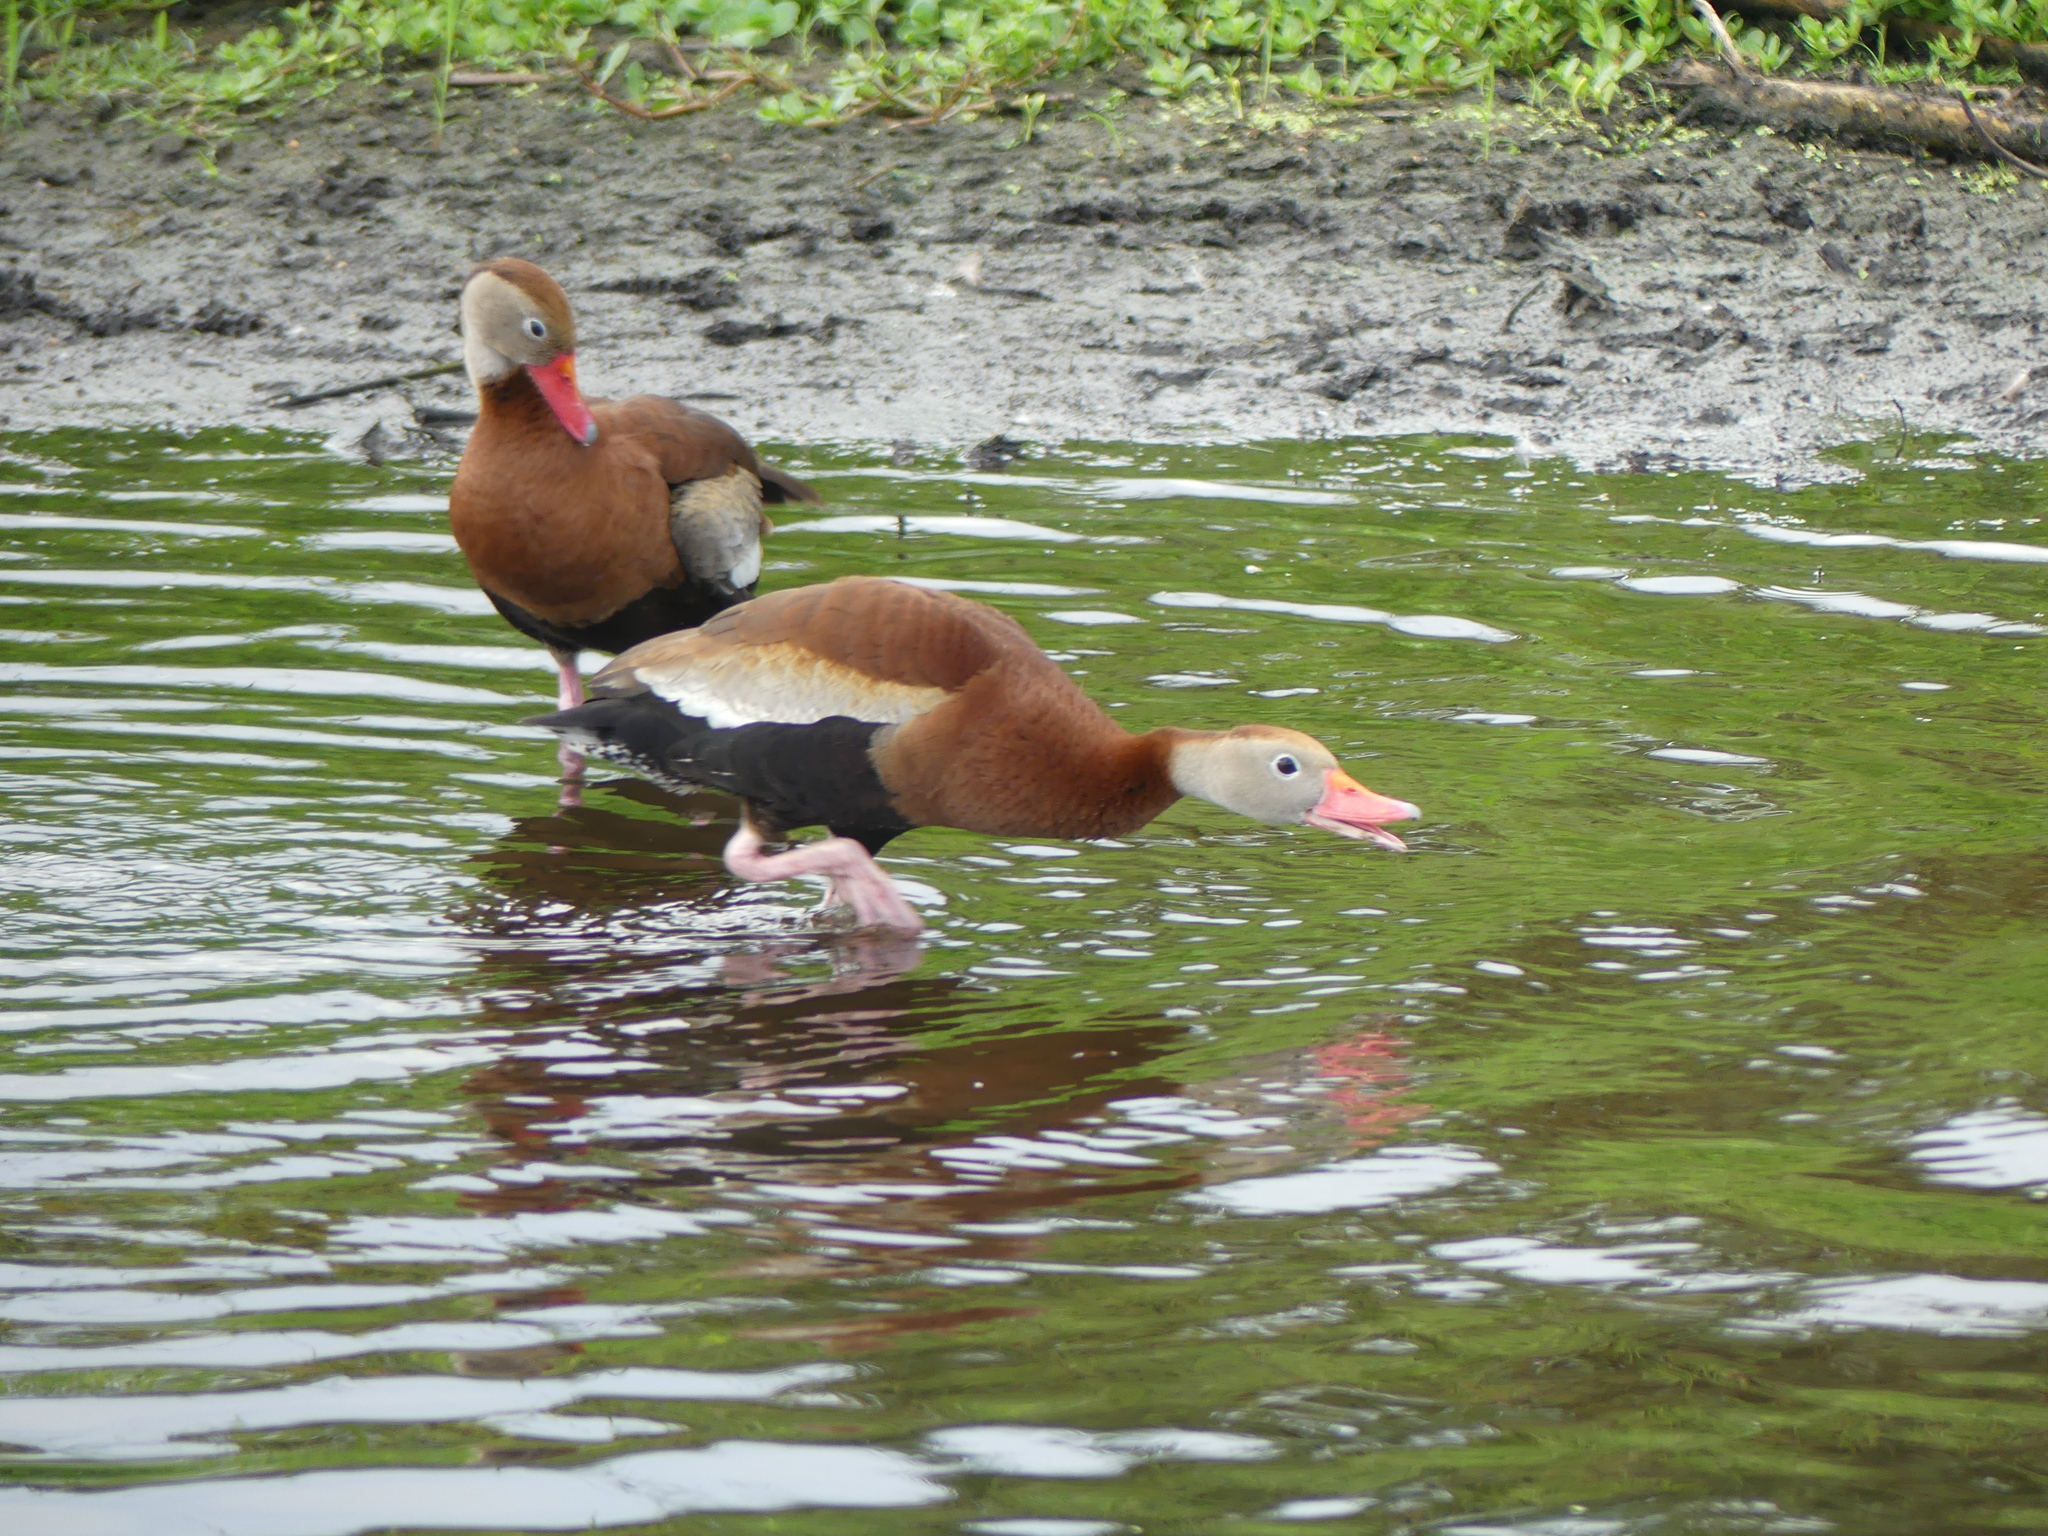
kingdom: Animalia
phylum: Chordata
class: Aves
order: Anseriformes
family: Anatidae
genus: Dendrocygna
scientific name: Dendrocygna autumnalis
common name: Black-bellied whistling duck
